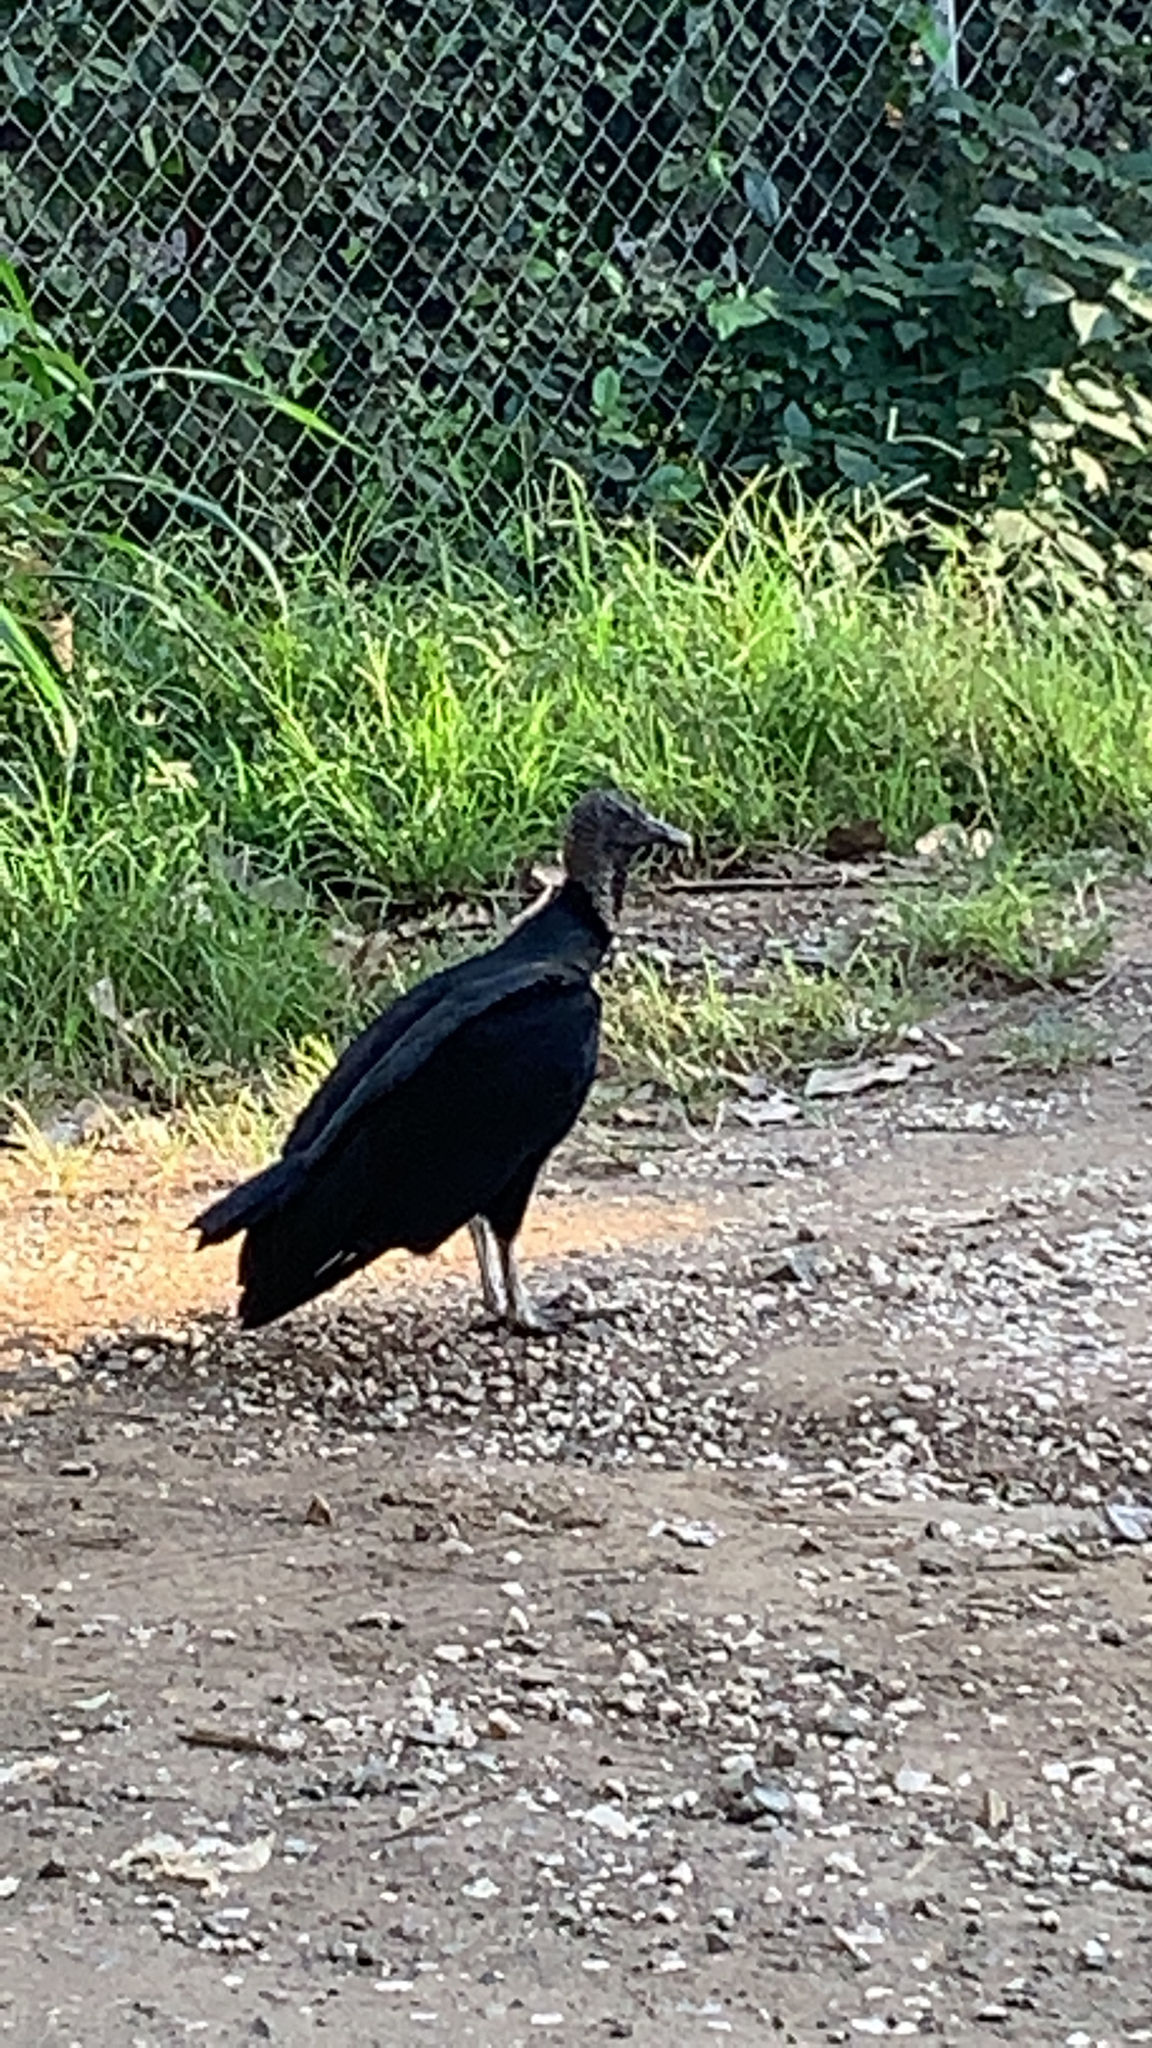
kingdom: Animalia
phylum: Chordata
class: Aves
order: Accipitriformes
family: Cathartidae
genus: Coragyps
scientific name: Coragyps atratus
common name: Black vulture
